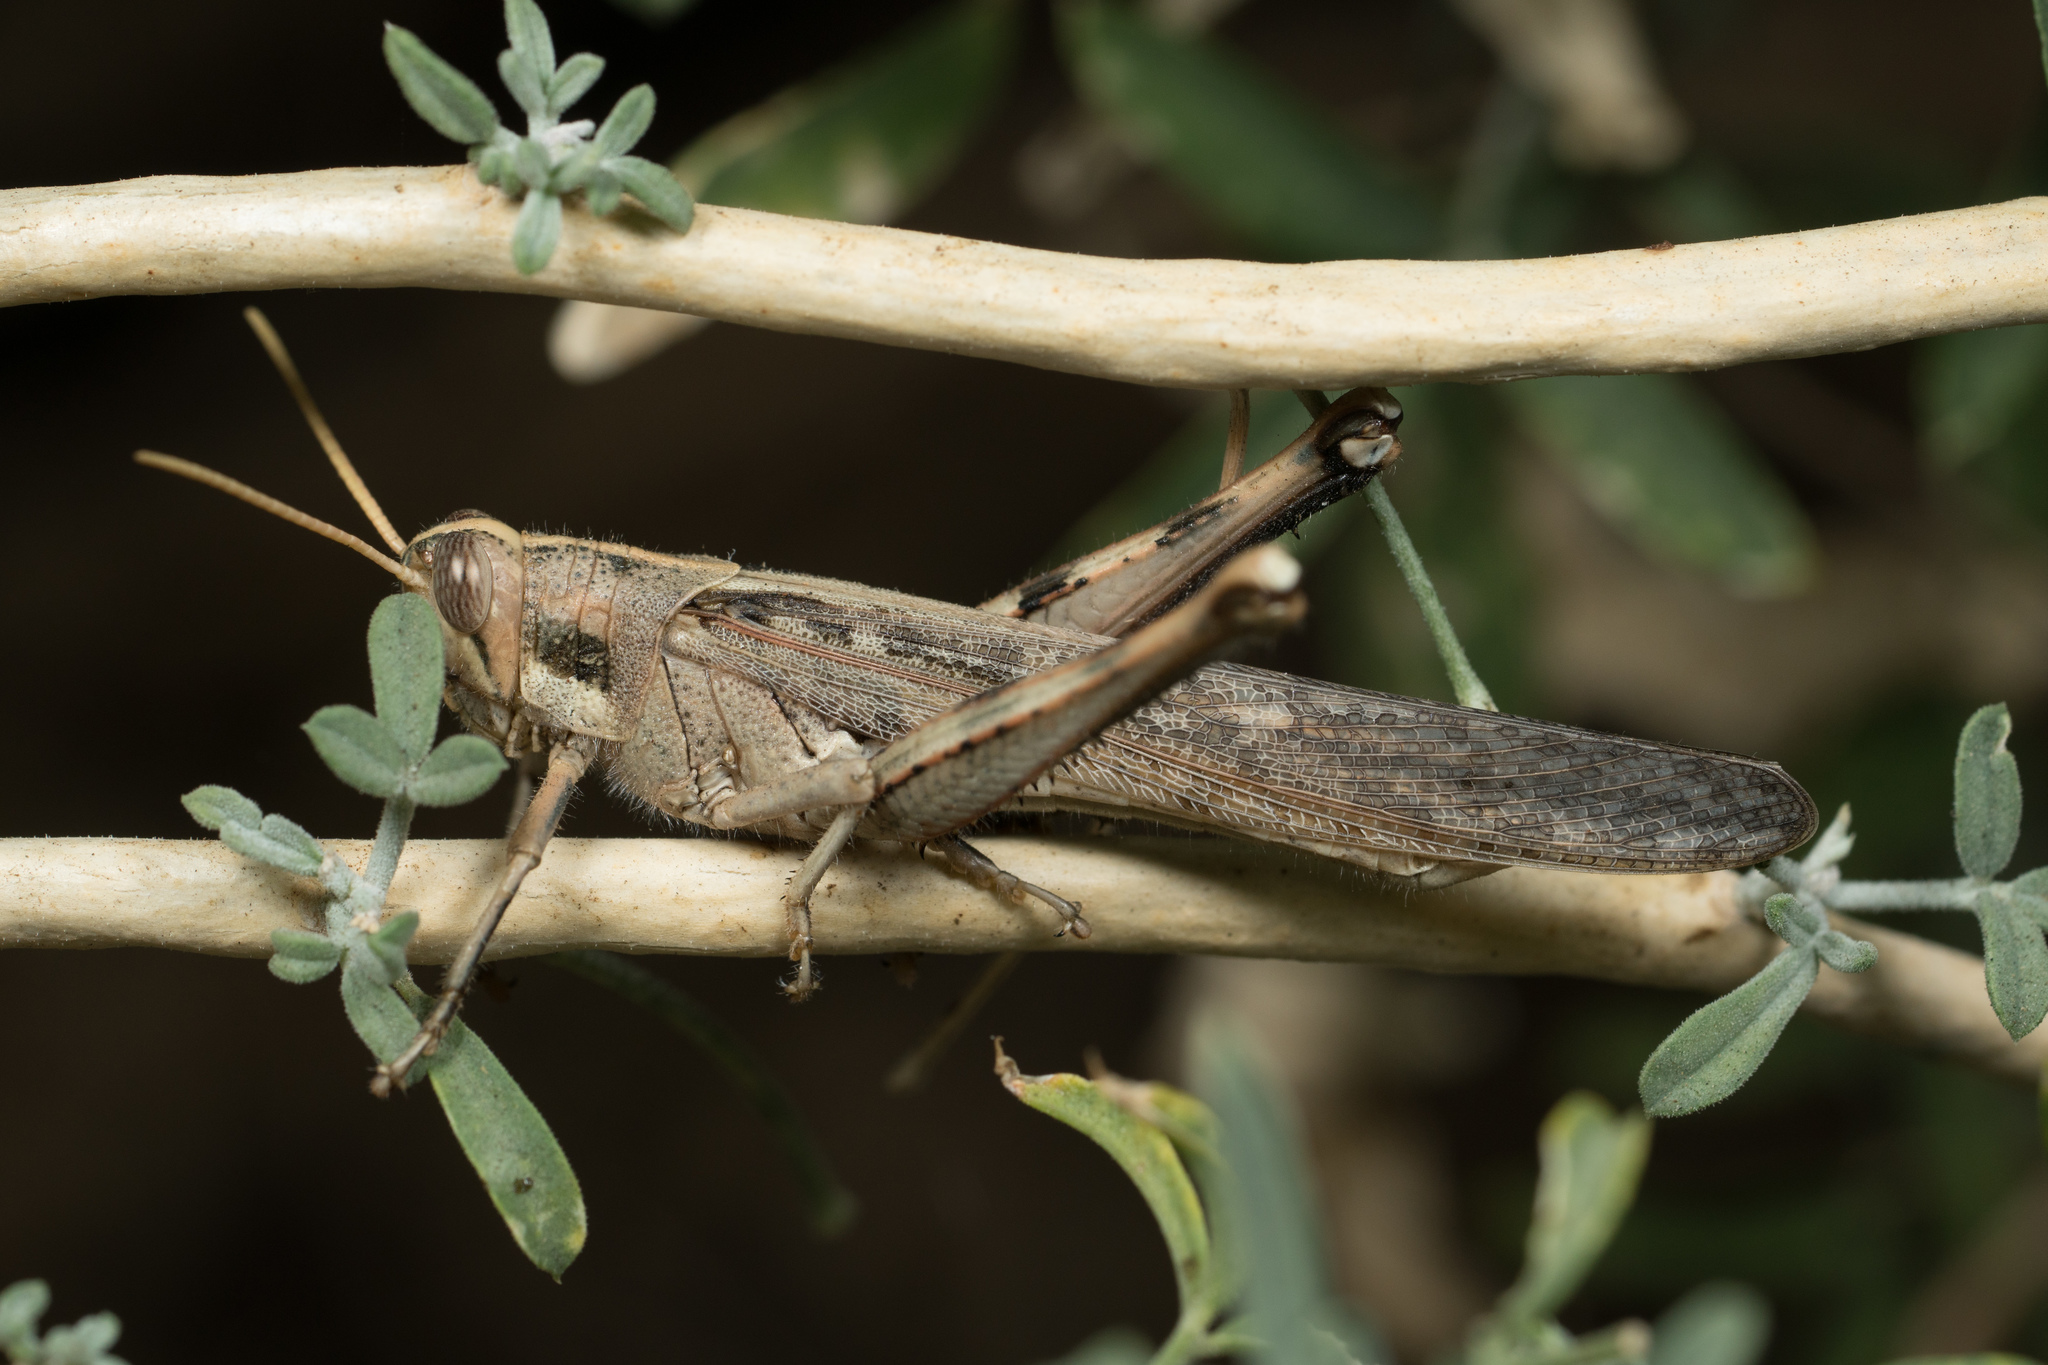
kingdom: Animalia
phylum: Arthropoda
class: Insecta
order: Orthoptera
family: Acrididae
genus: Schistocerca
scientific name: Schistocerca nitens
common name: Vagrant grasshopper
